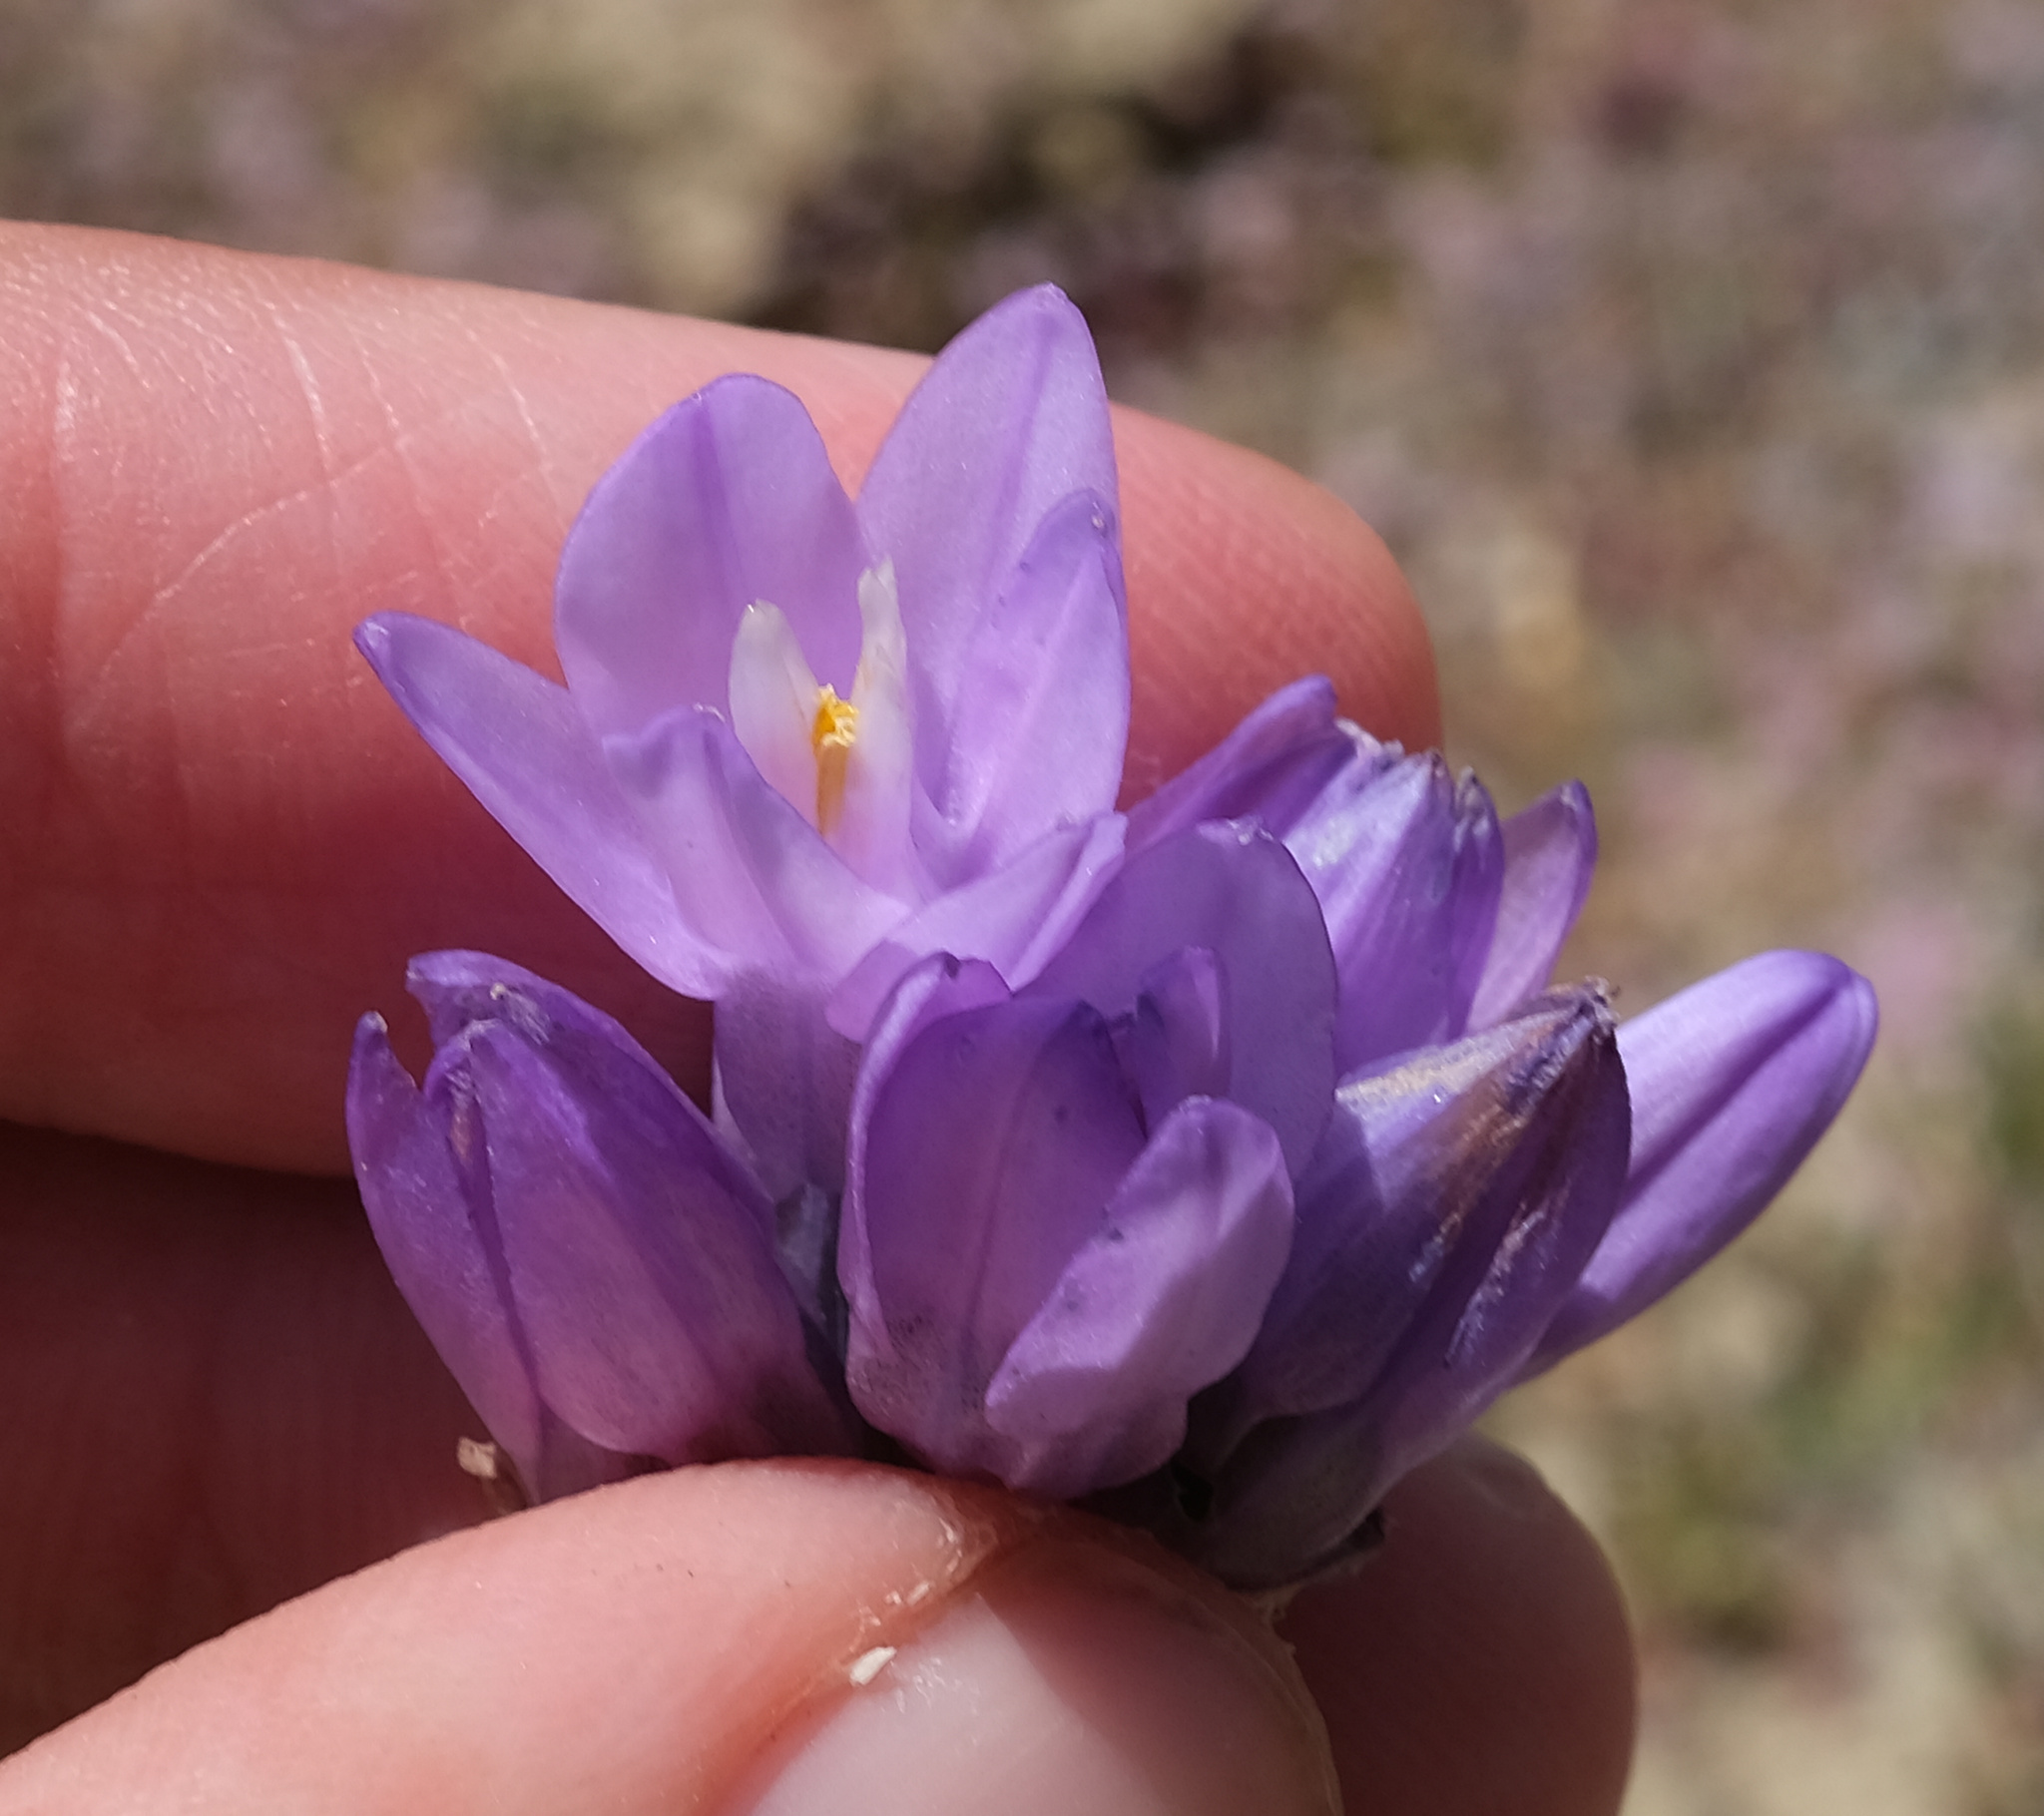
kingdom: Plantae
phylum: Tracheophyta
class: Liliopsida
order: Asparagales
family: Asparagaceae
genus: Dipterostemon
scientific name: Dipterostemon capitatus
